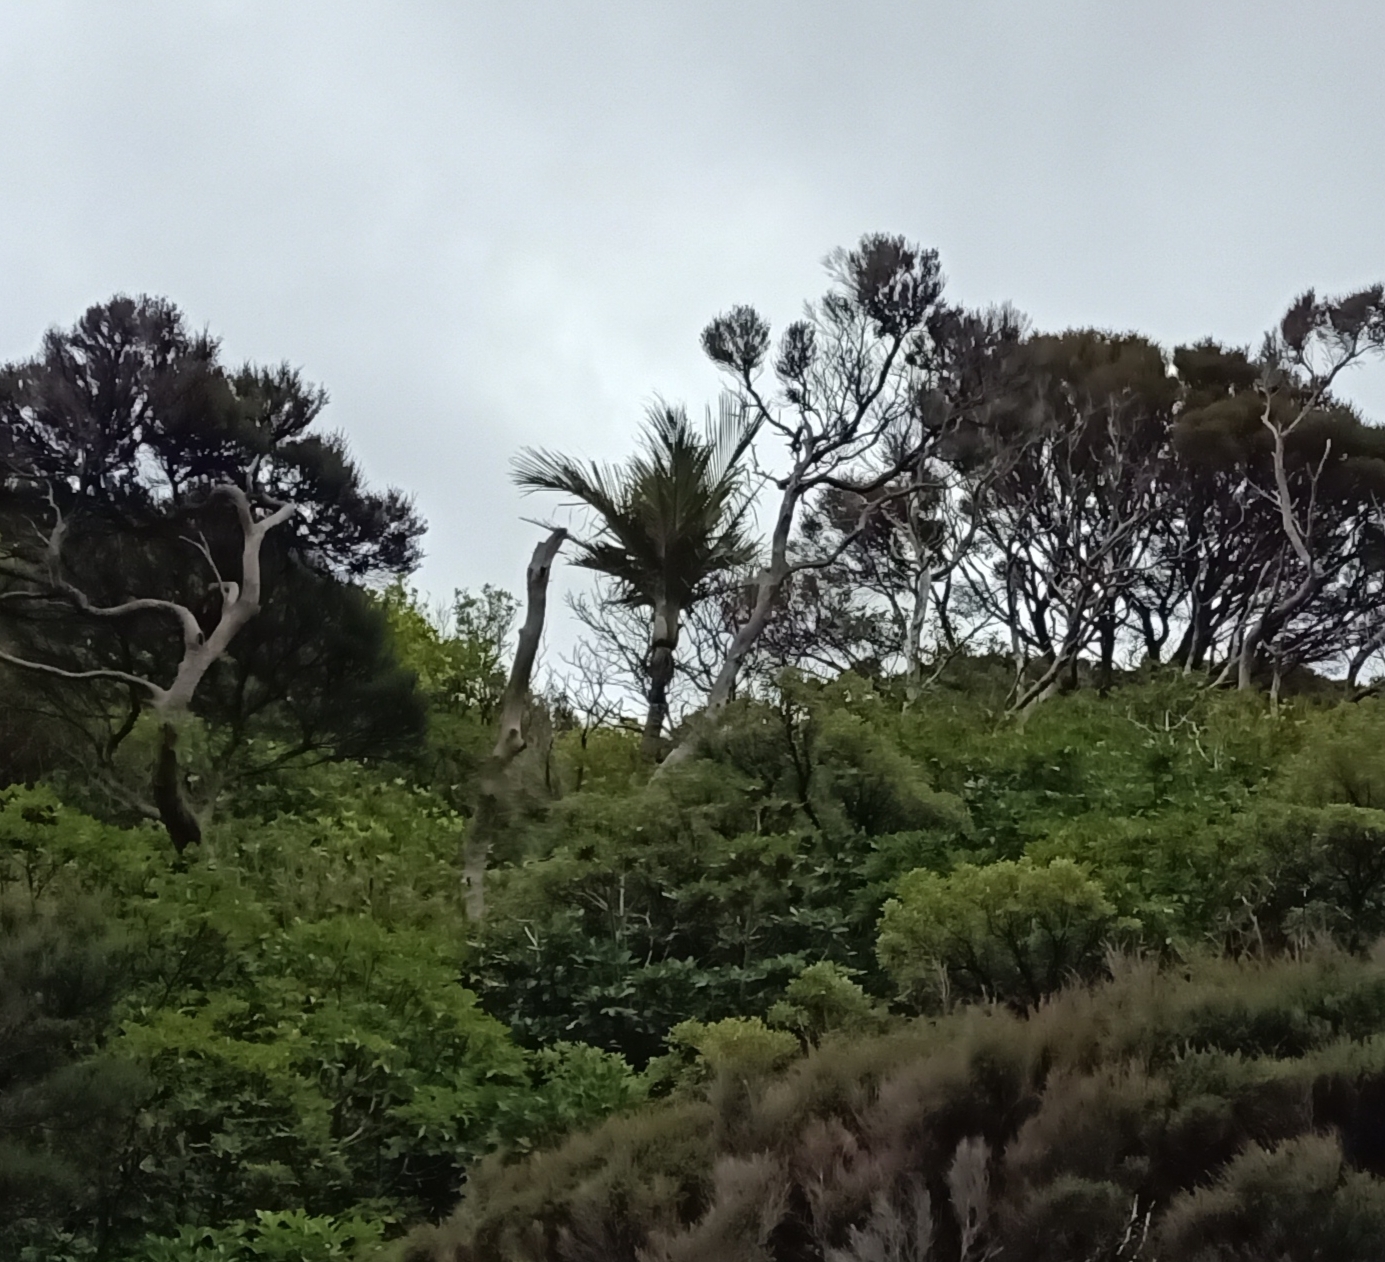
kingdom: Plantae
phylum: Tracheophyta
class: Liliopsida
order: Arecales
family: Arecaceae
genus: Rhopalostylis
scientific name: Rhopalostylis sapida
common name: Feather-duster palm
